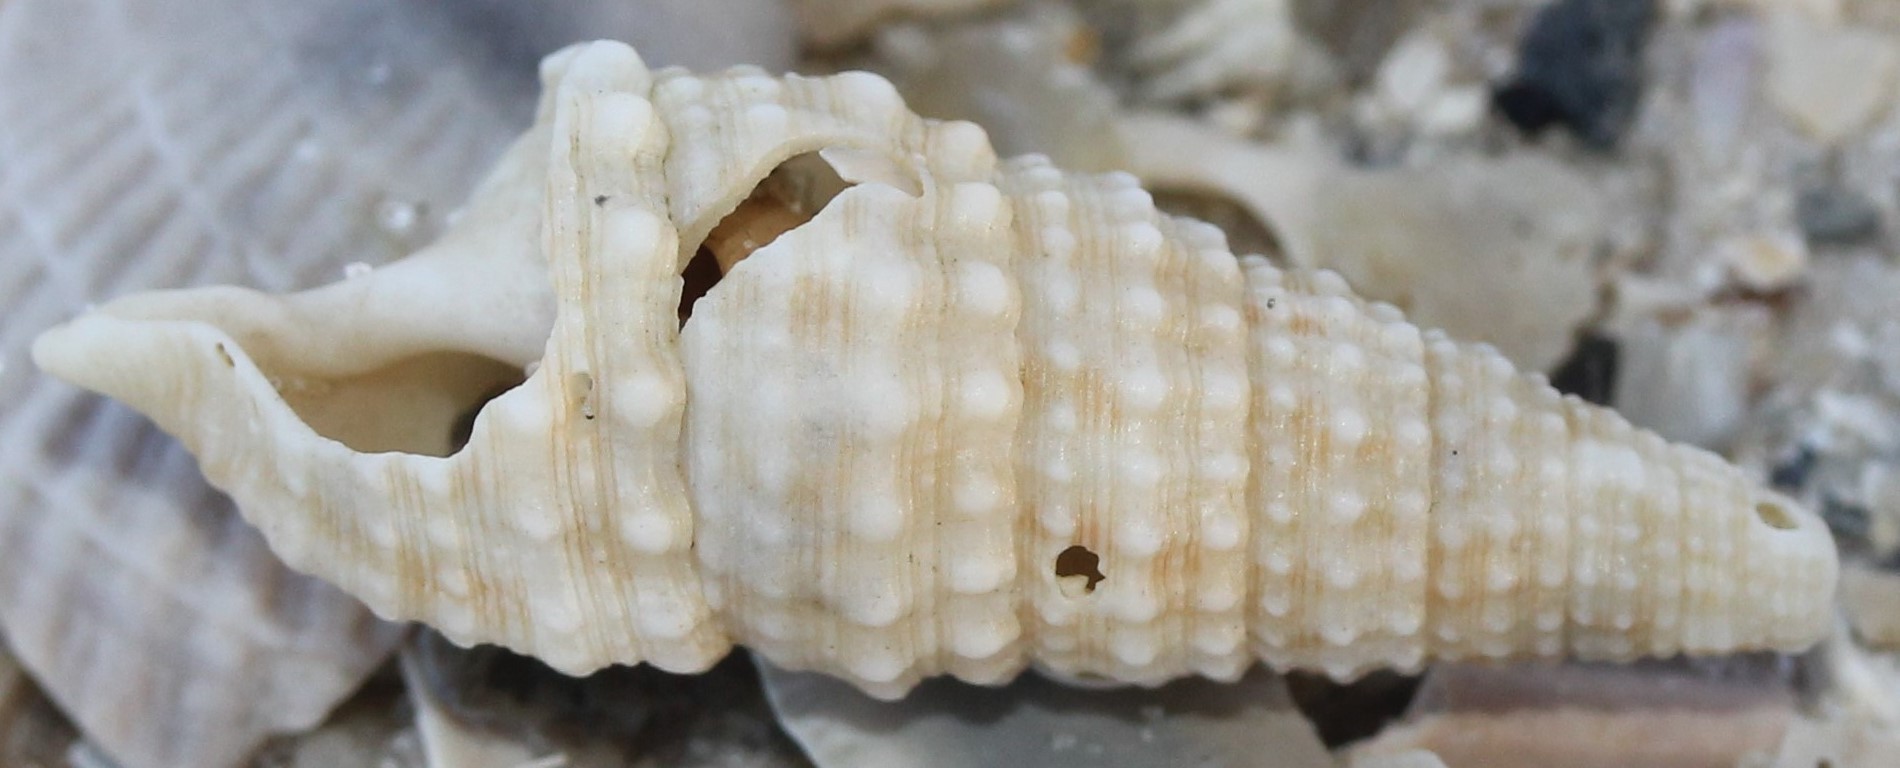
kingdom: Animalia
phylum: Mollusca
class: Gastropoda
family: Cerithiidae
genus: Cerithium
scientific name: Cerithium atratum
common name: Dark cerith
